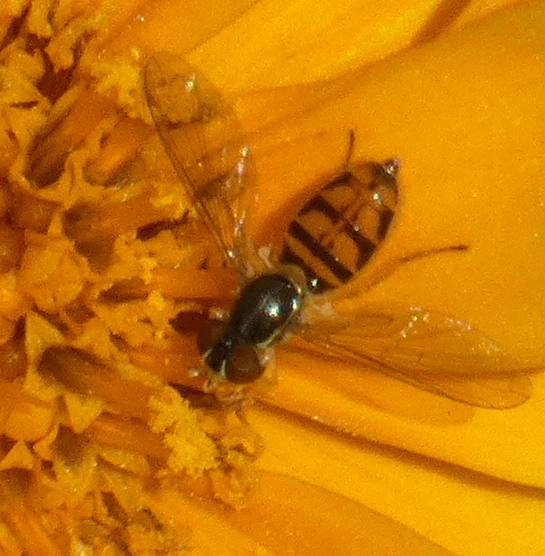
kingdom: Animalia
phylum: Arthropoda
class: Insecta
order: Diptera
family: Syrphidae
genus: Toxomerus
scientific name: Toxomerus marginatus
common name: Syrphid fly
